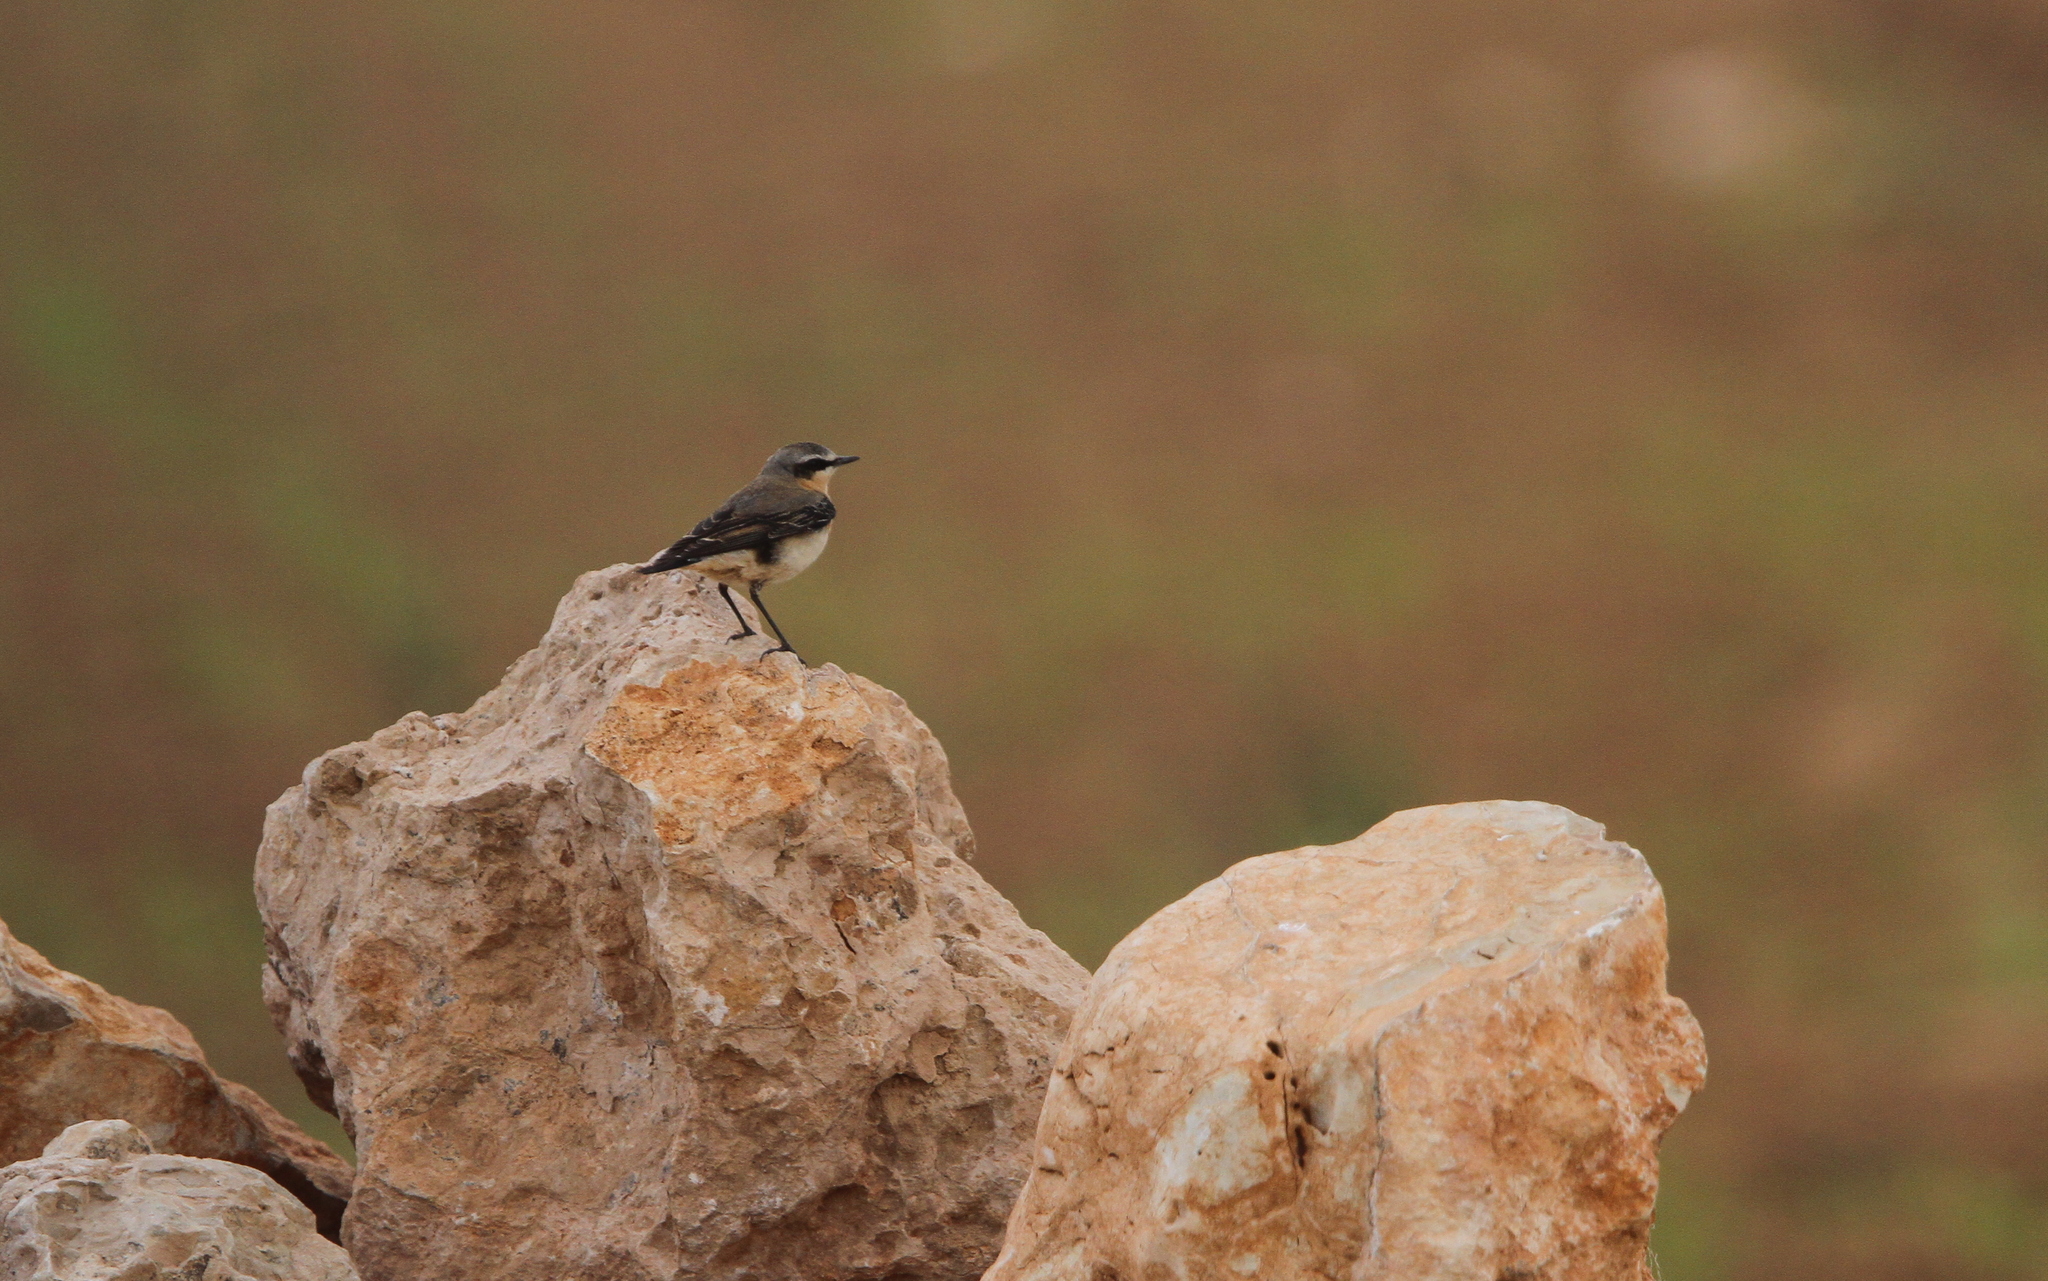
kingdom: Animalia
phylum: Chordata
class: Aves
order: Passeriformes
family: Muscicapidae
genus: Oenanthe
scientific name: Oenanthe oenanthe
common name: Northern wheatear
